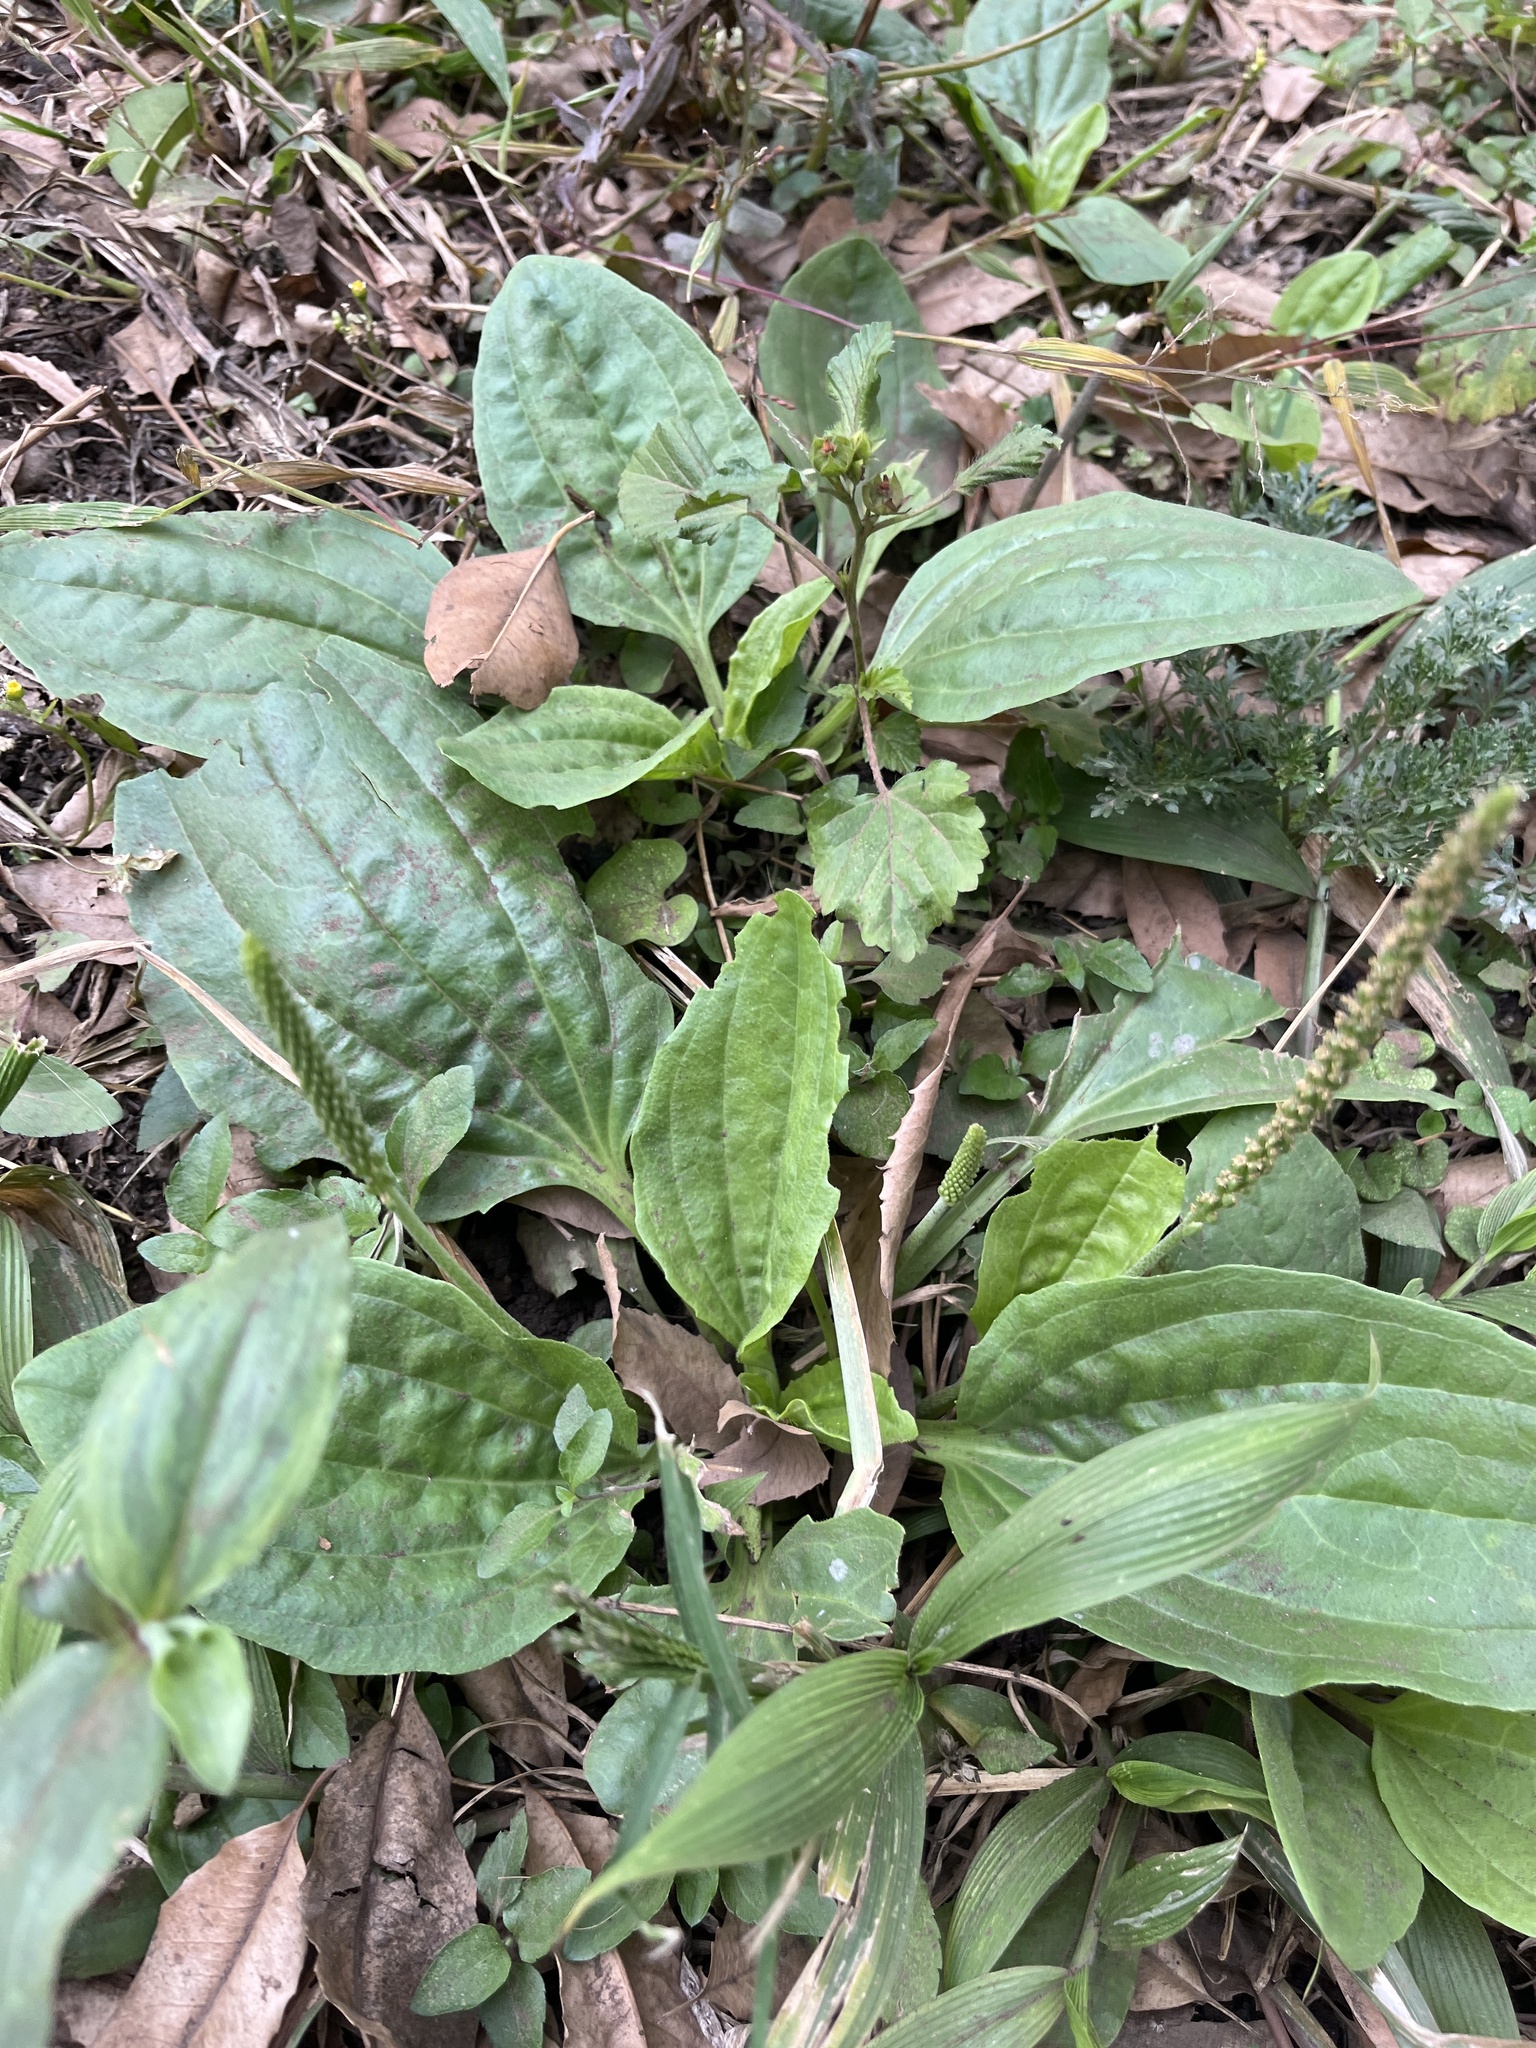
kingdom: Plantae
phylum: Tracheophyta
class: Magnoliopsida
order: Lamiales
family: Plantaginaceae
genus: Plantago
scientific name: Plantago major
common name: Common plantain
